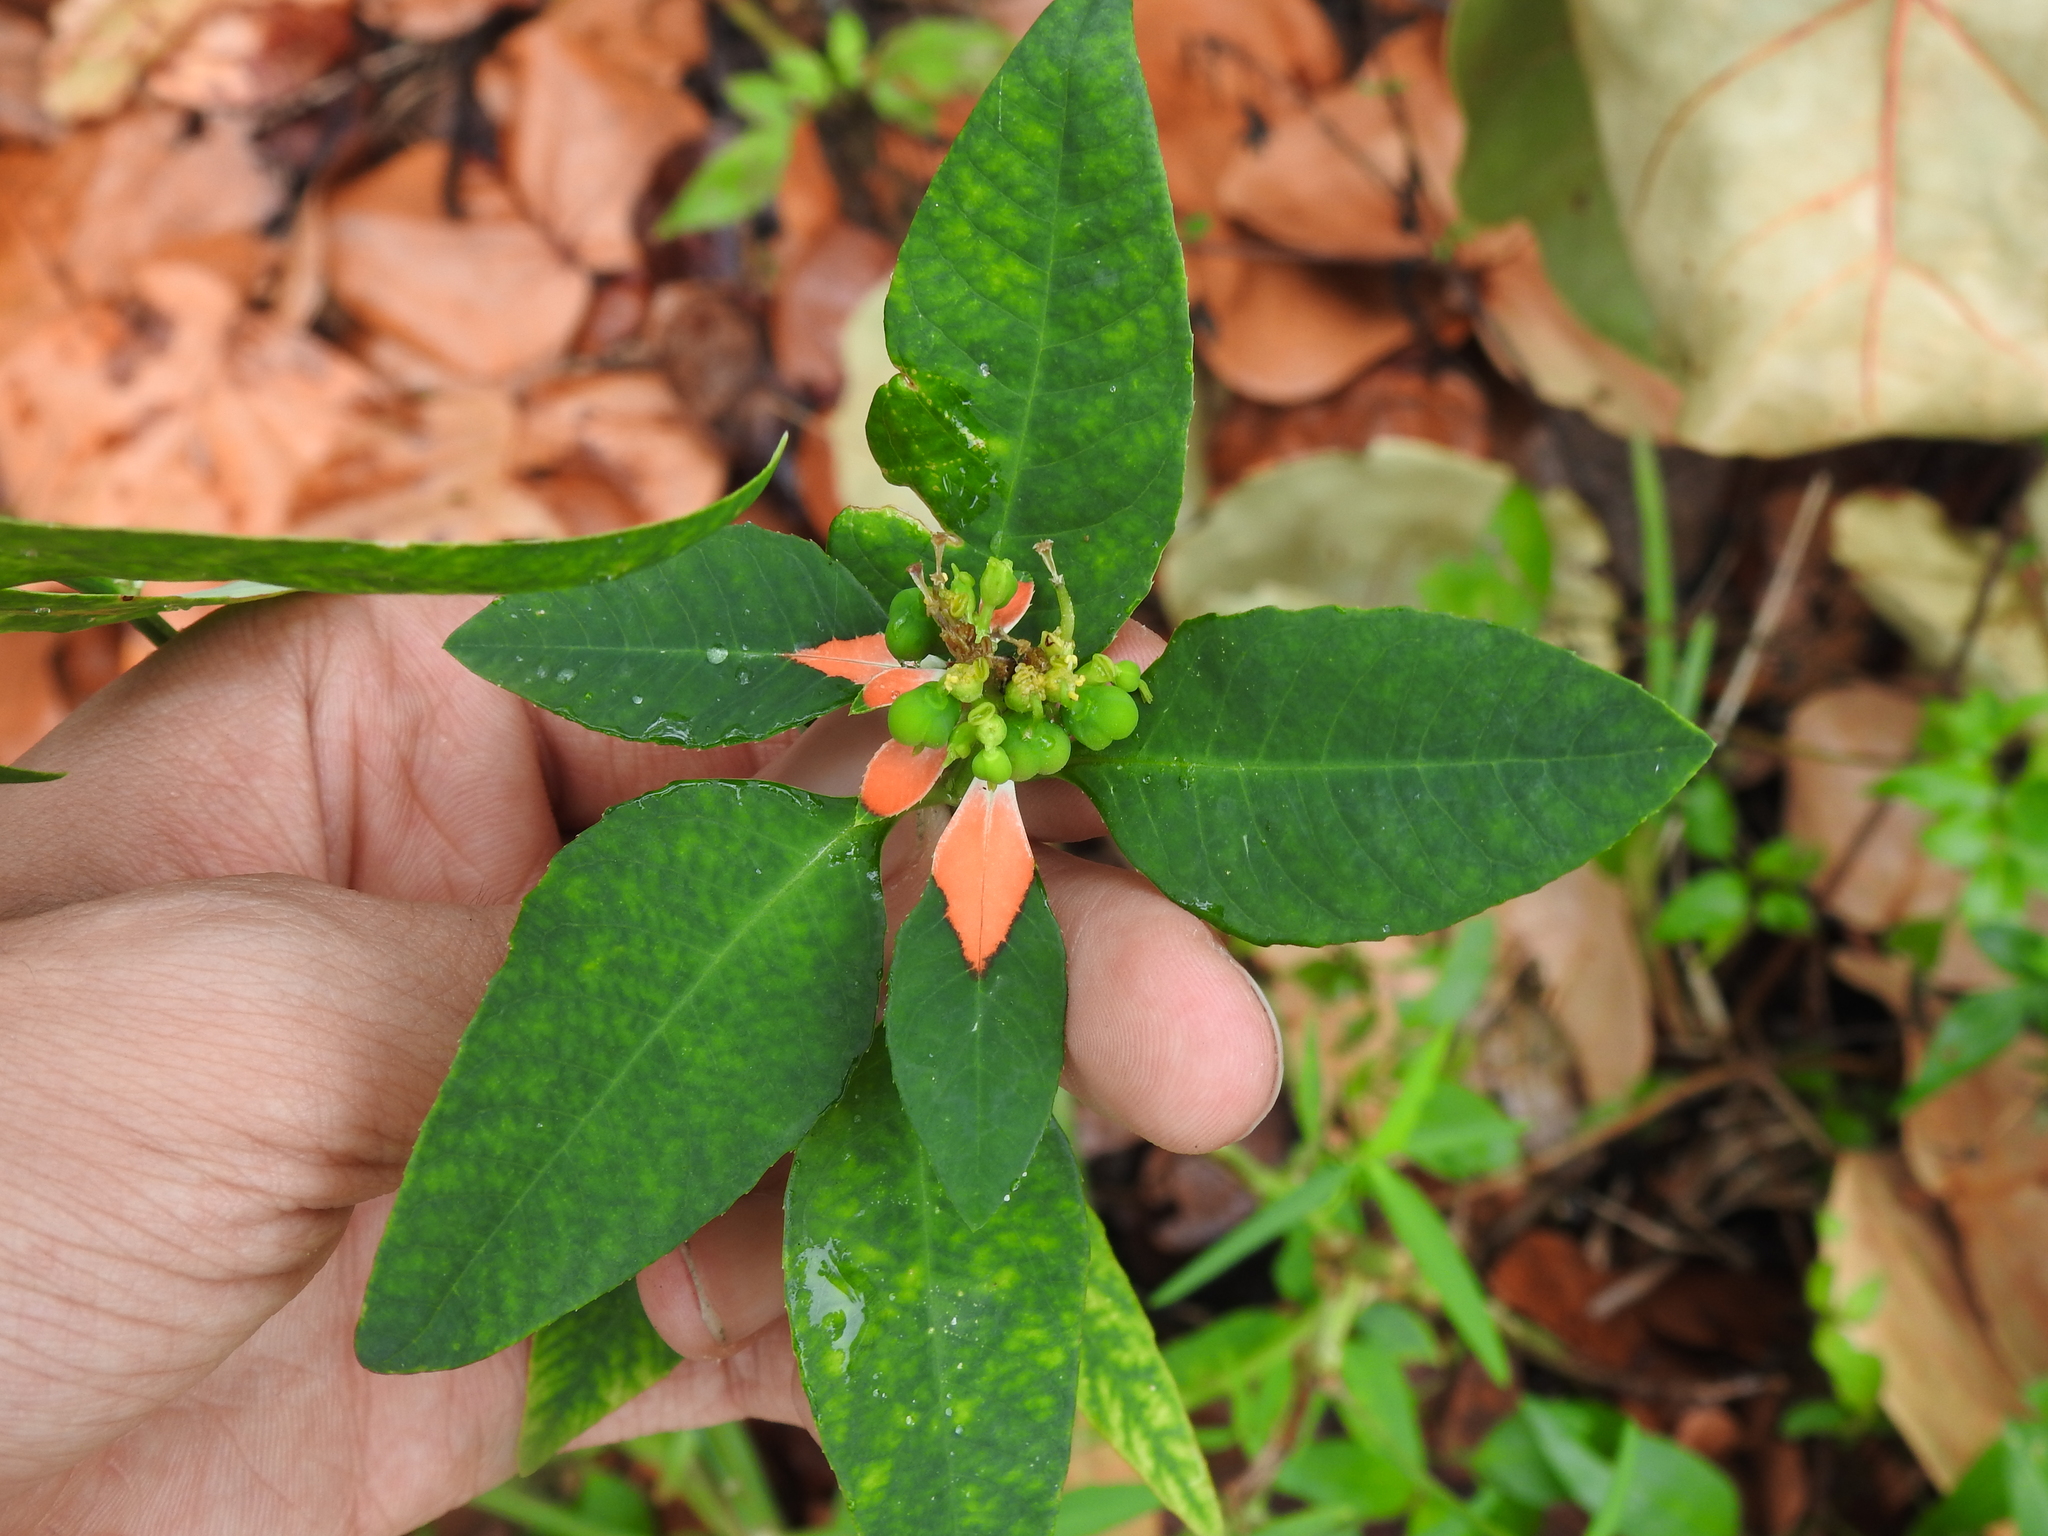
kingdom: Plantae
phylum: Tracheophyta
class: Magnoliopsida
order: Malpighiales
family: Euphorbiaceae
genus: Euphorbia
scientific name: Euphorbia heterophylla
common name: Mexican fireplant
